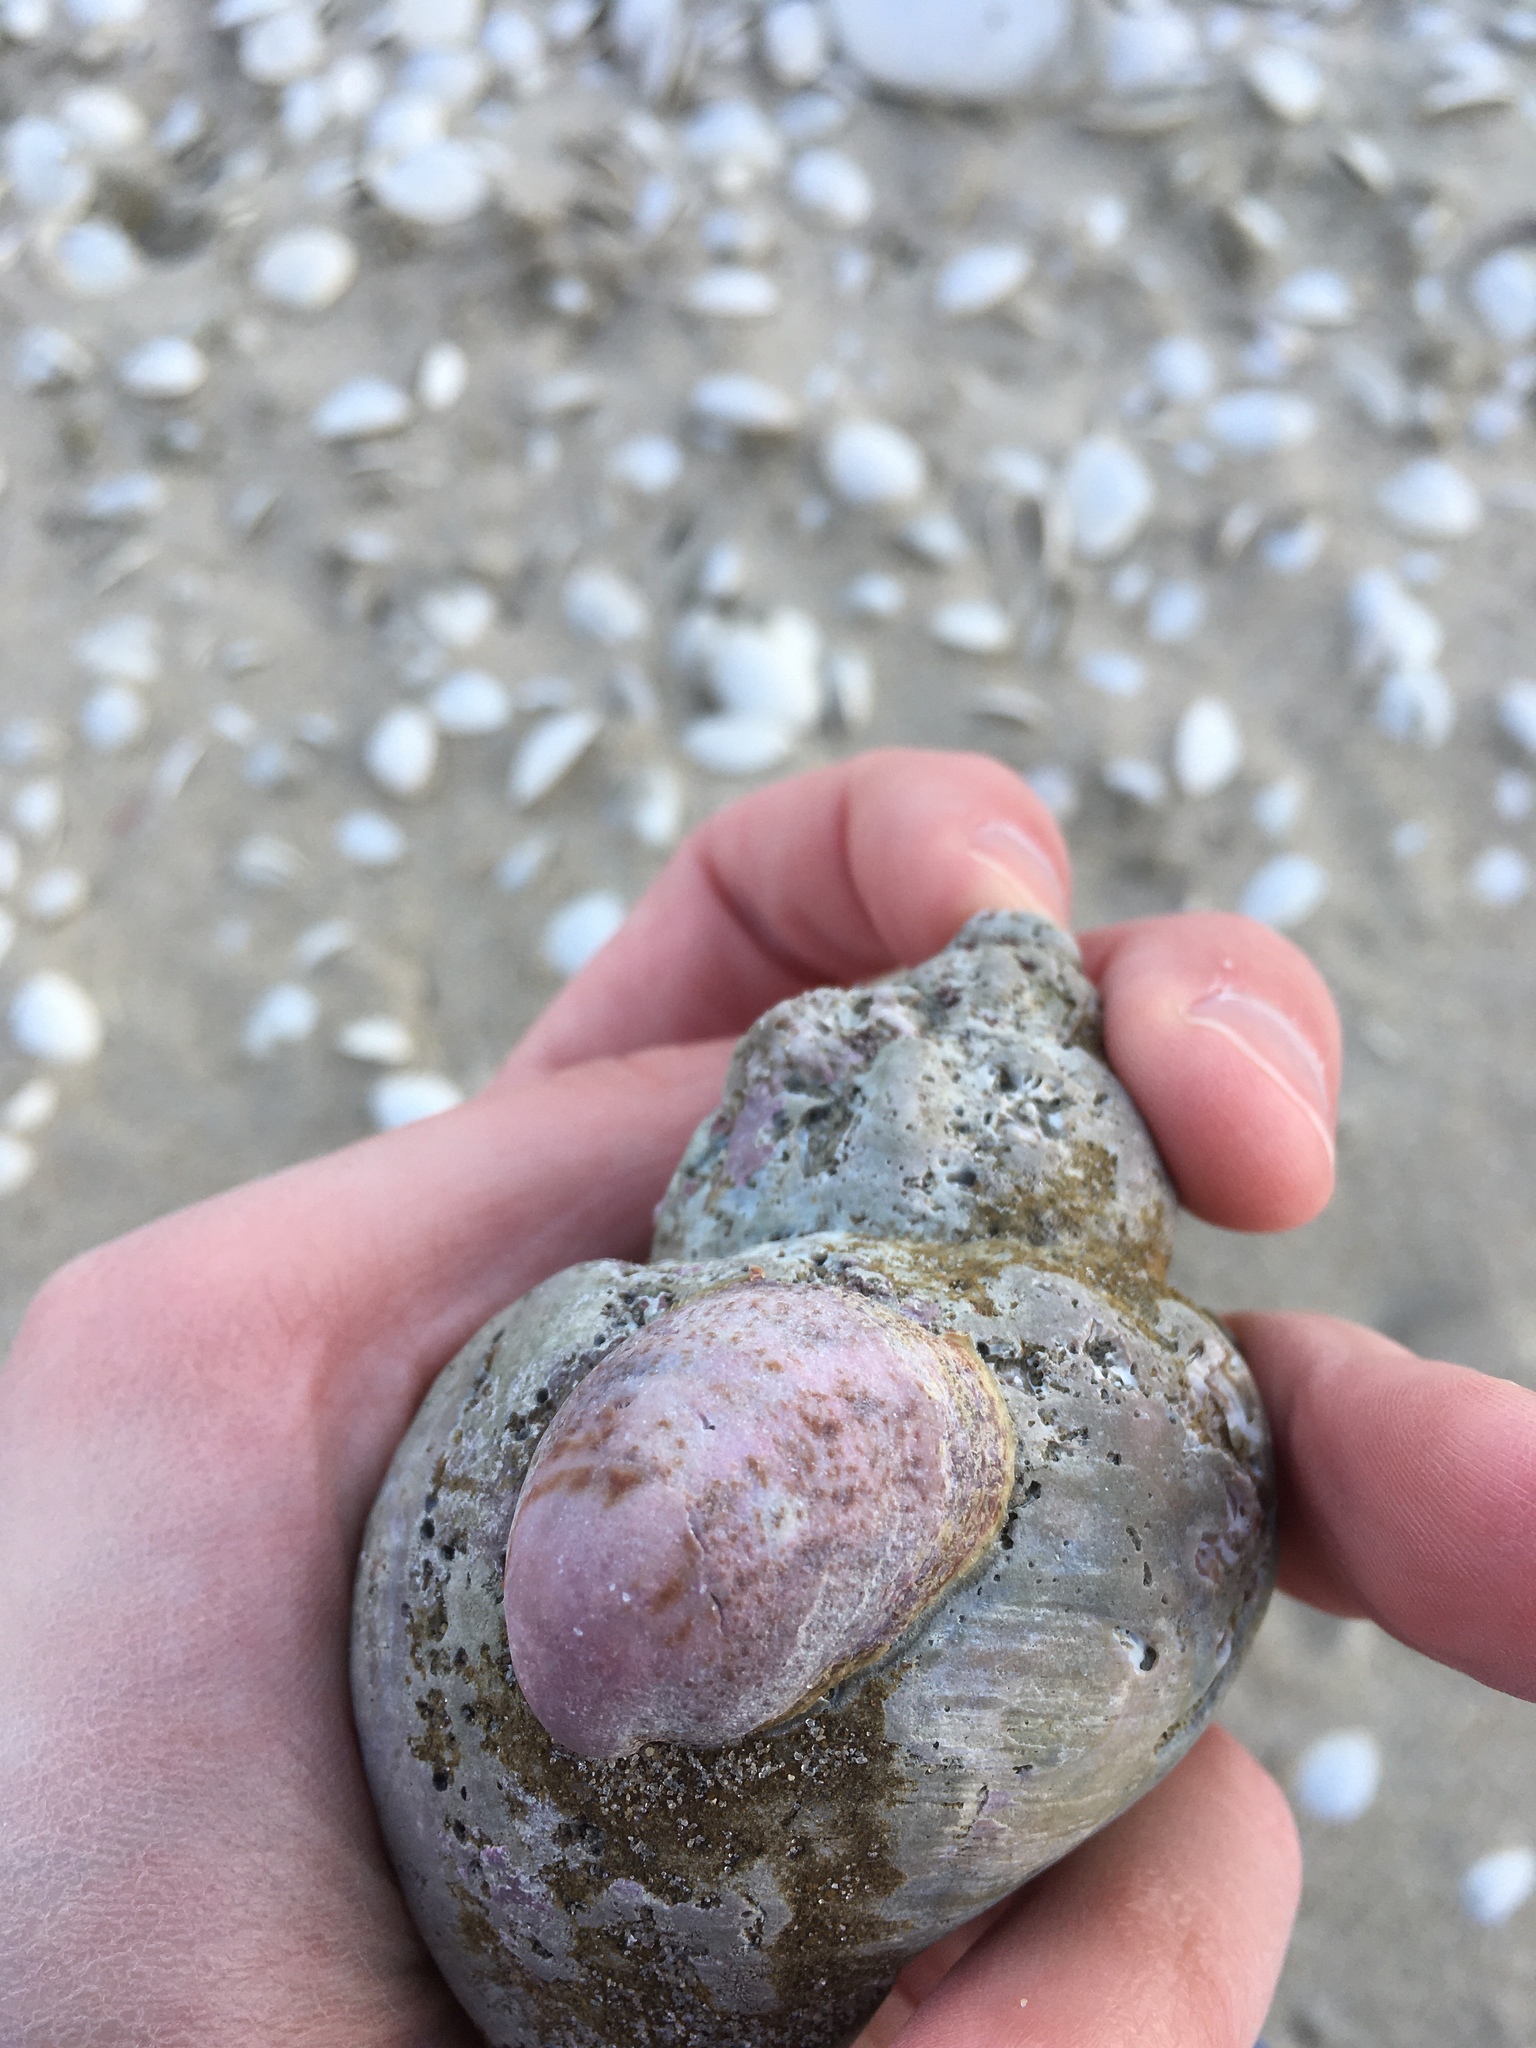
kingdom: Animalia
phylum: Mollusca
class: Gastropoda
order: Littorinimorpha
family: Calyptraeidae
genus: Crepidula
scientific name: Crepidula fornicata
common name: Slipper limpet
